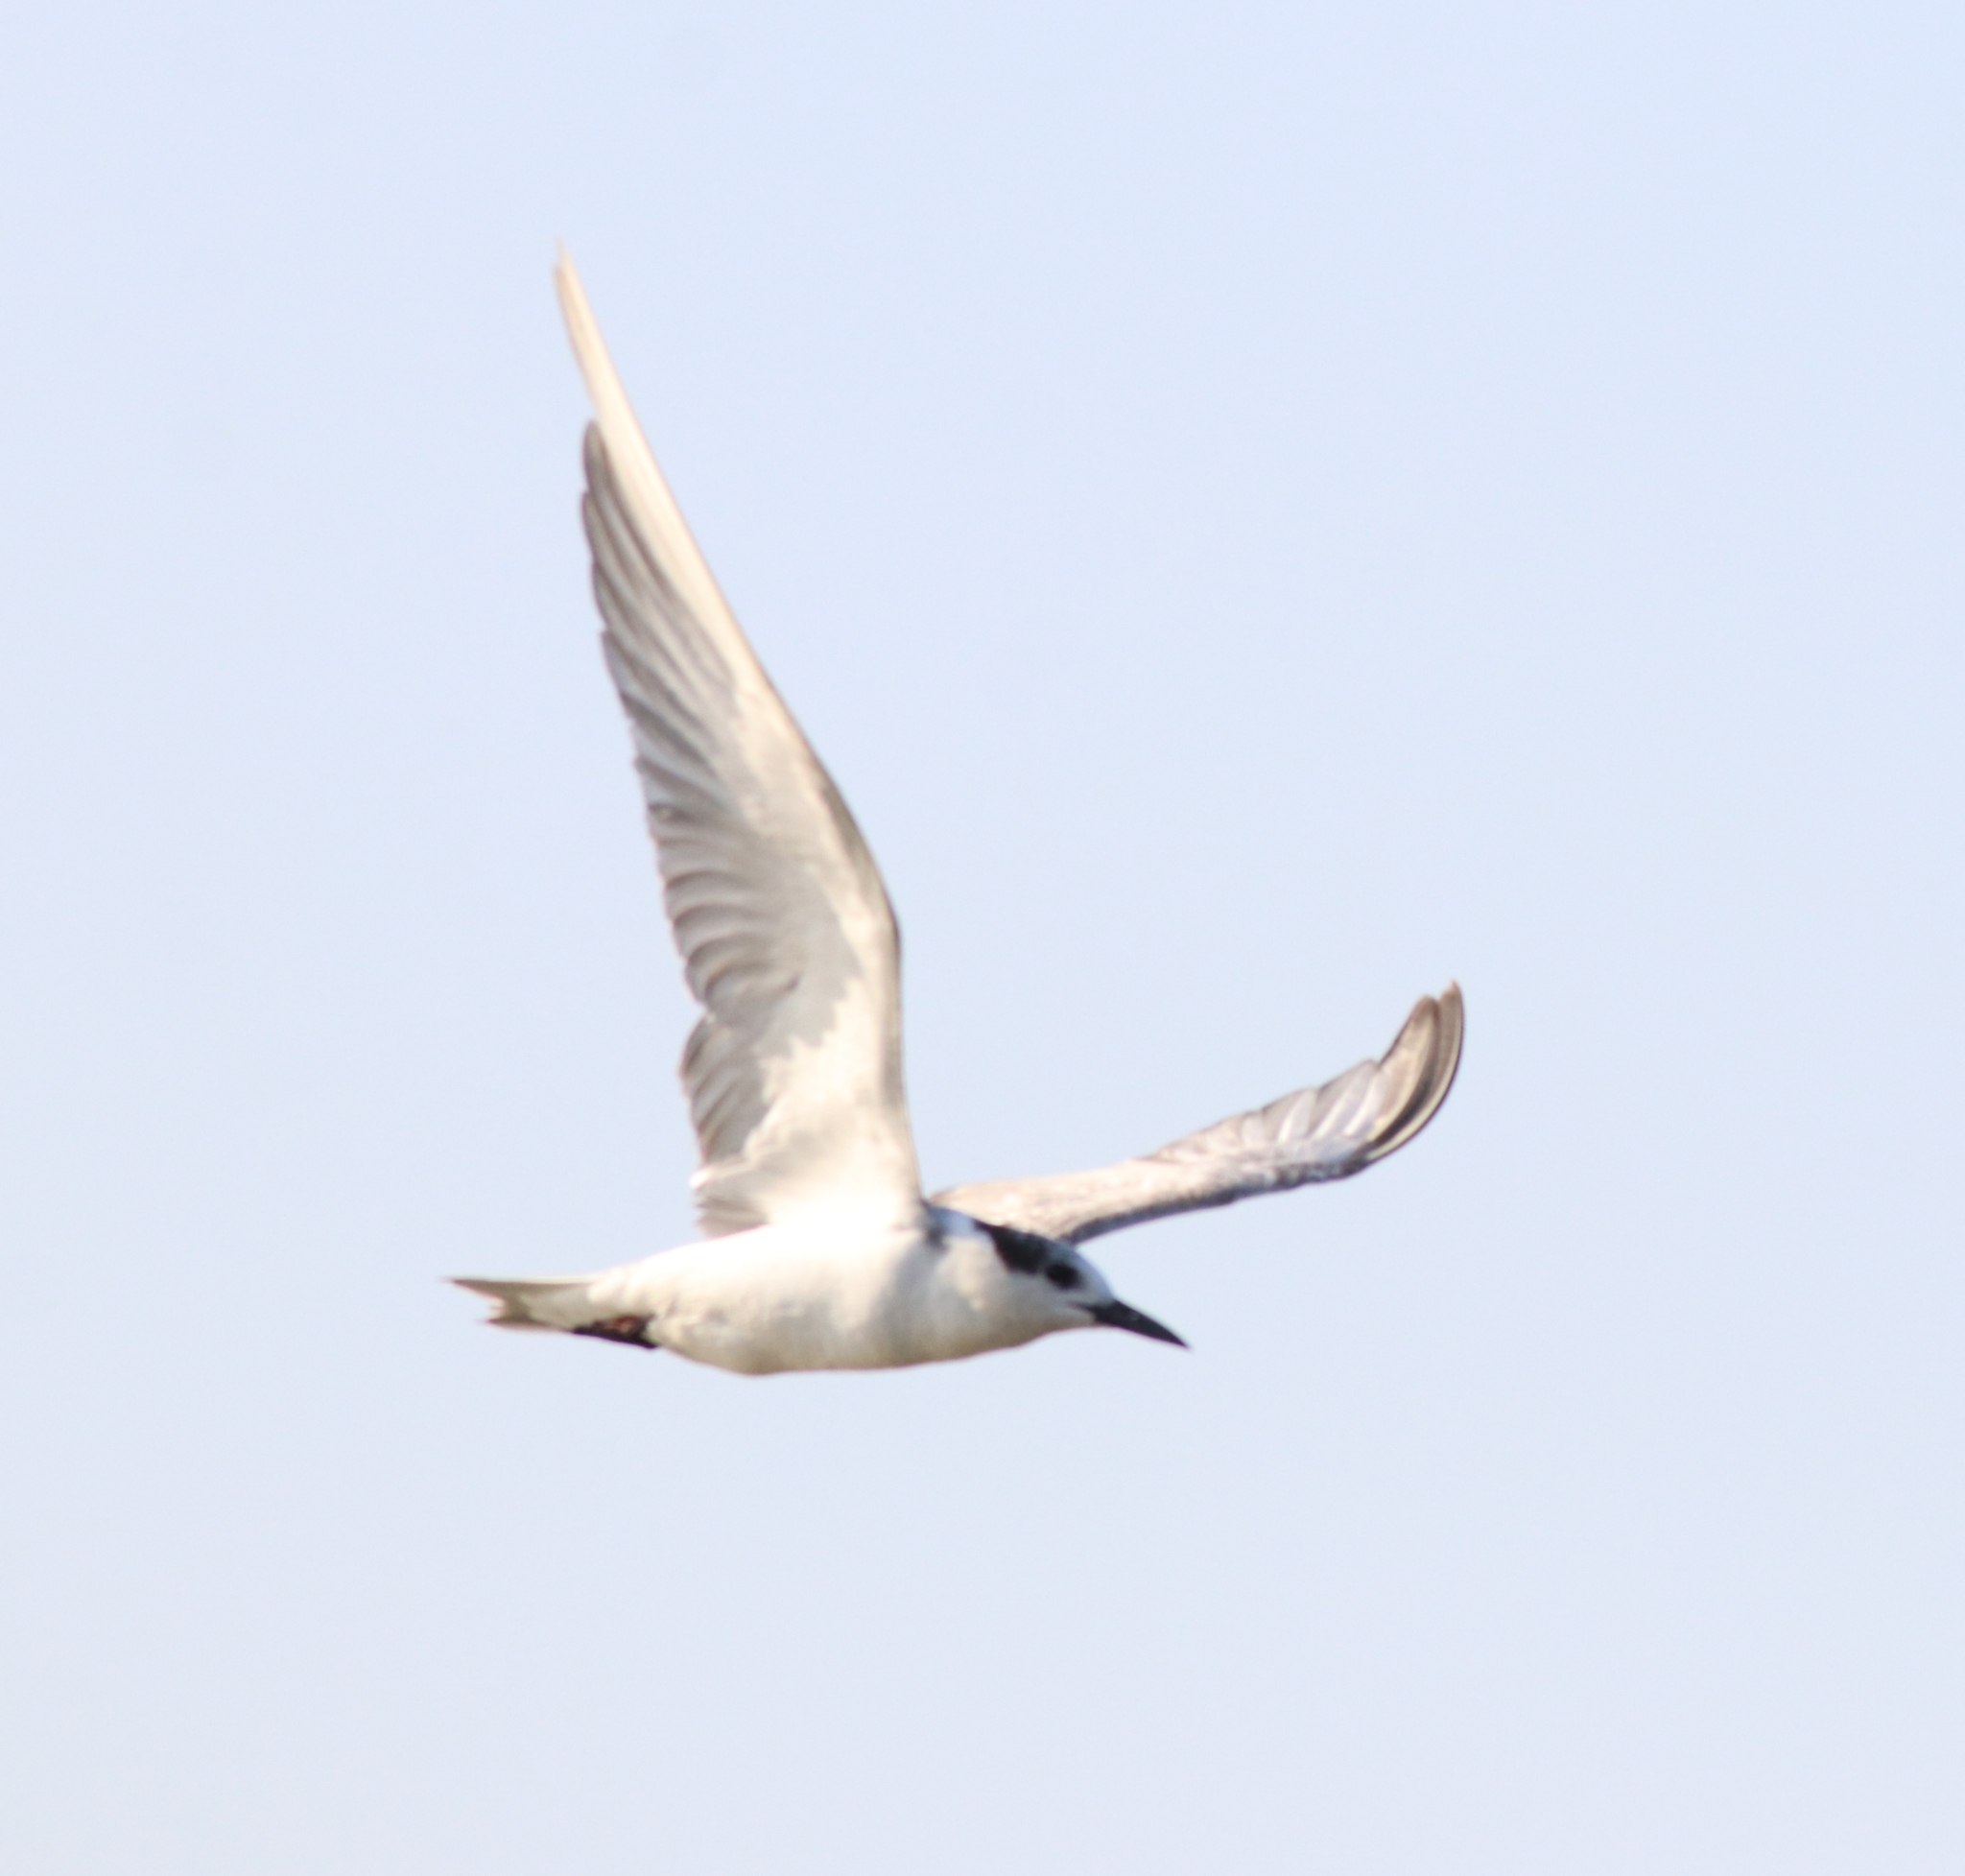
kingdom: Animalia
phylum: Chordata
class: Aves
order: Charadriiformes
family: Laridae
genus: Chlidonias
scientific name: Chlidonias hybrida
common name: Whiskered tern
